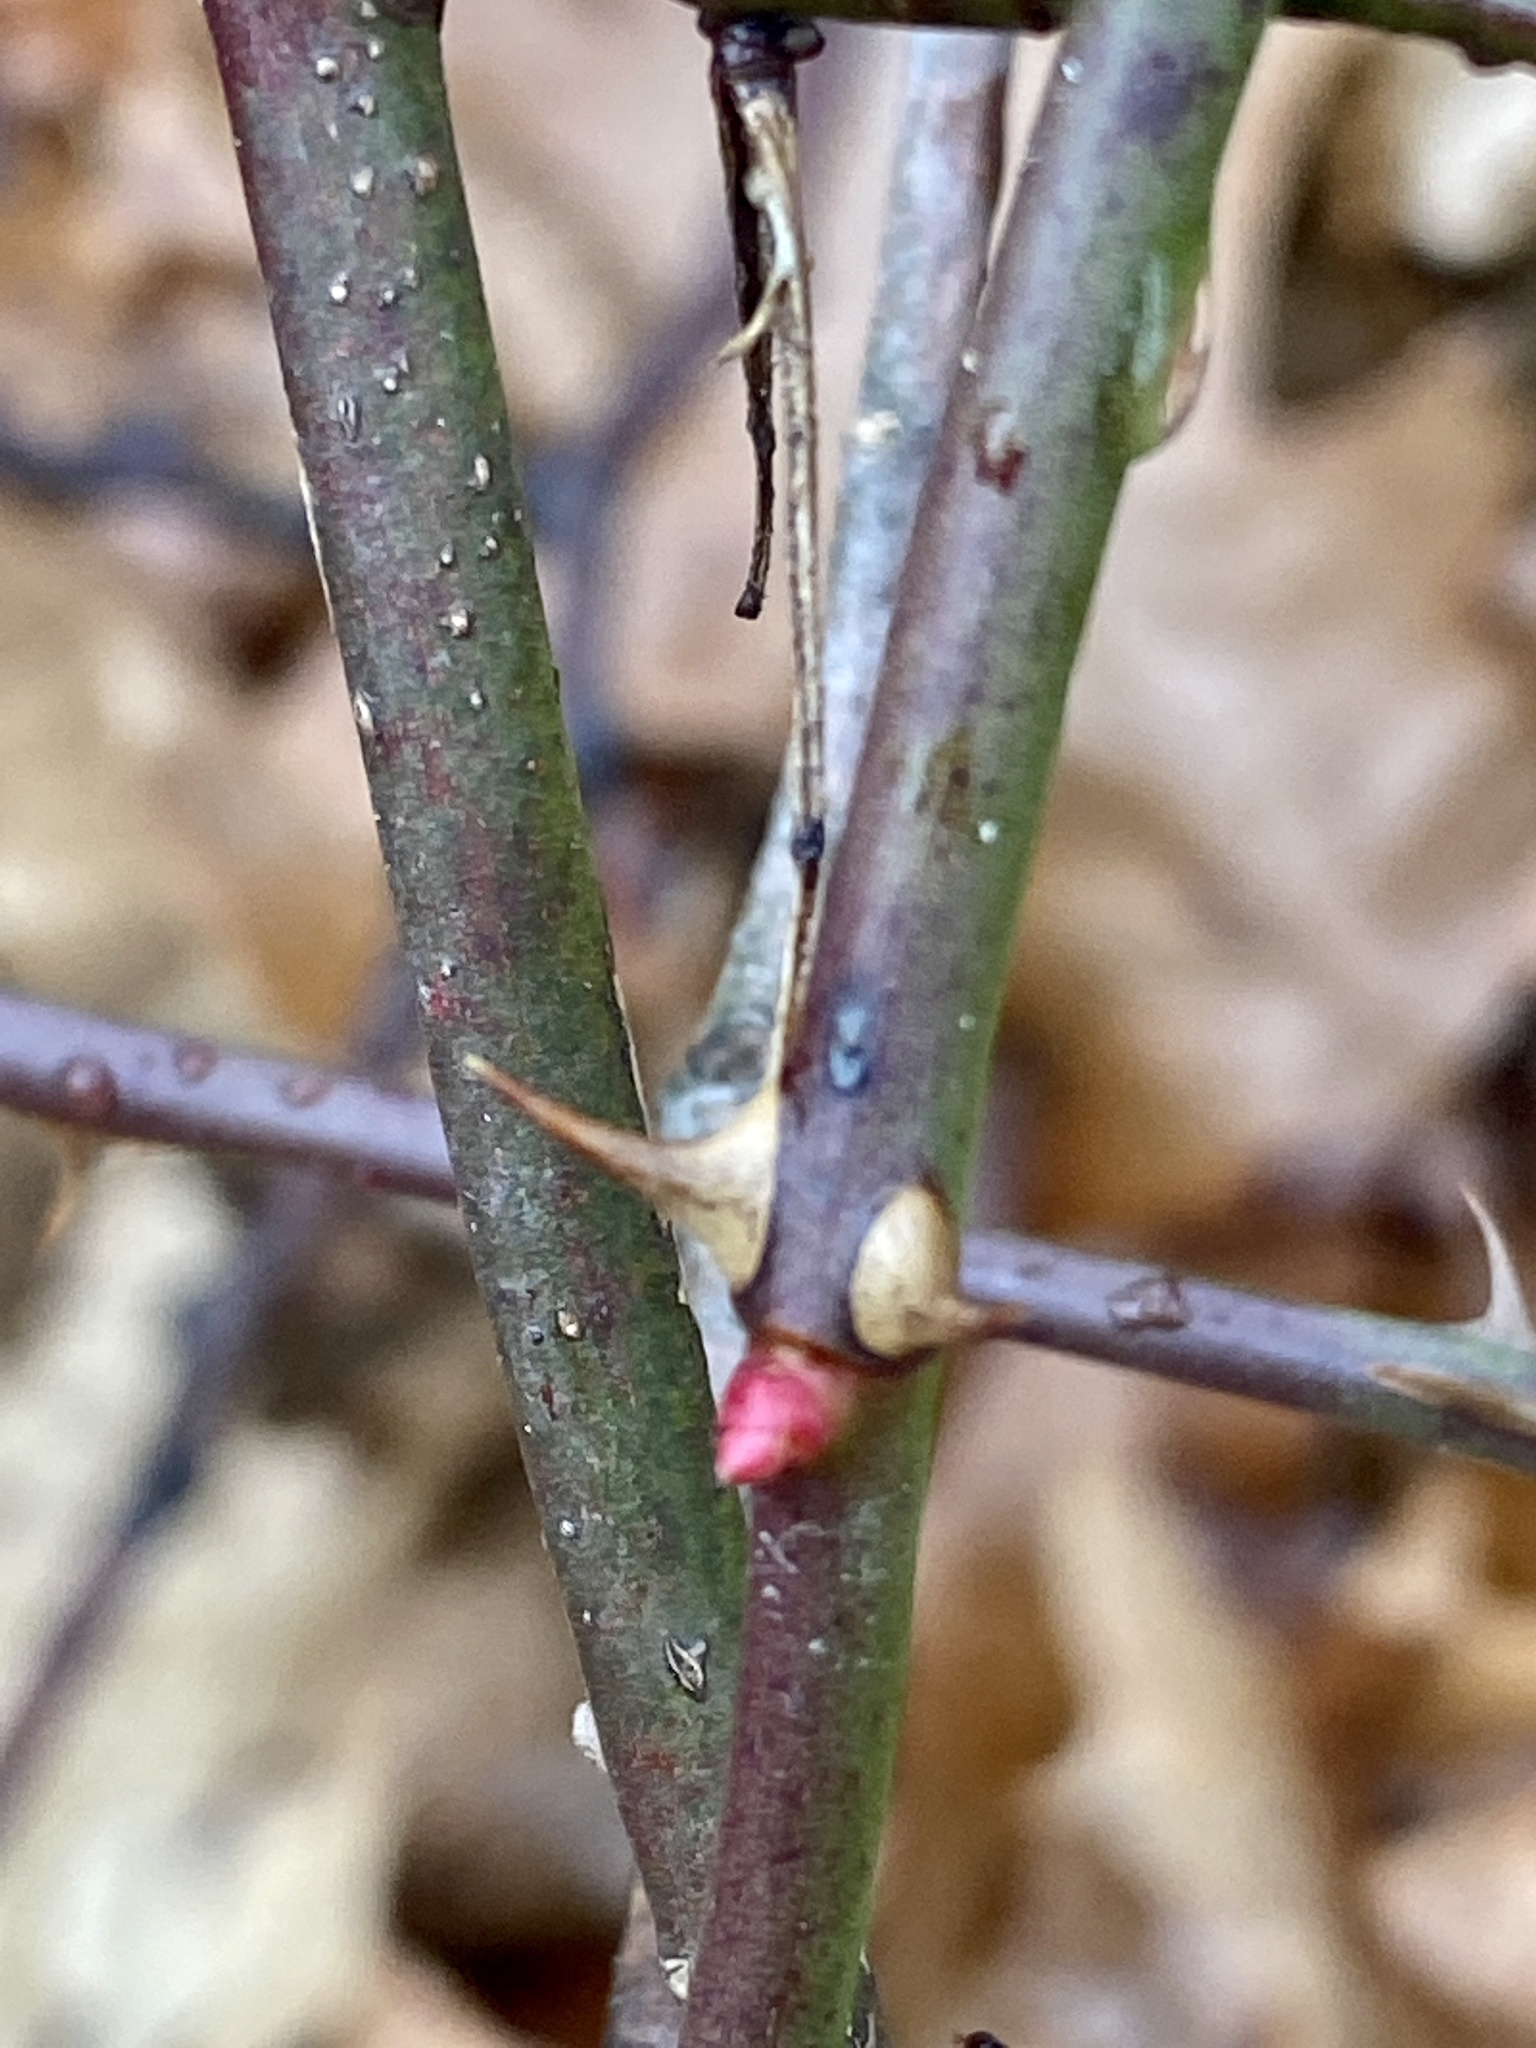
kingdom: Plantae
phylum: Tracheophyta
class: Magnoliopsida
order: Rosales
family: Rosaceae
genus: Rosa
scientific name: Rosa multiflora
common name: Multiflora rose
